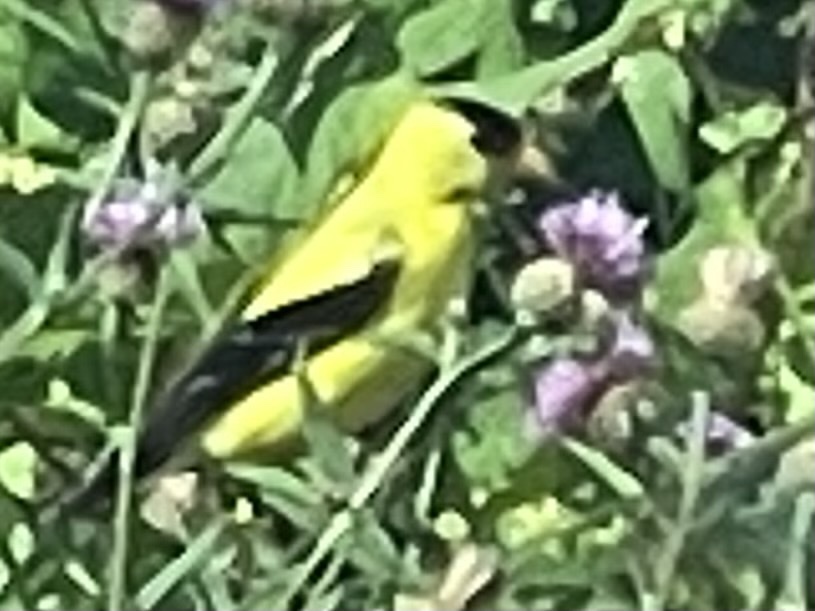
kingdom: Animalia
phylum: Chordata
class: Aves
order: Passeriformes
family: Fringillidae
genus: Spinus
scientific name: Spinus tristis
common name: American goldfinch
